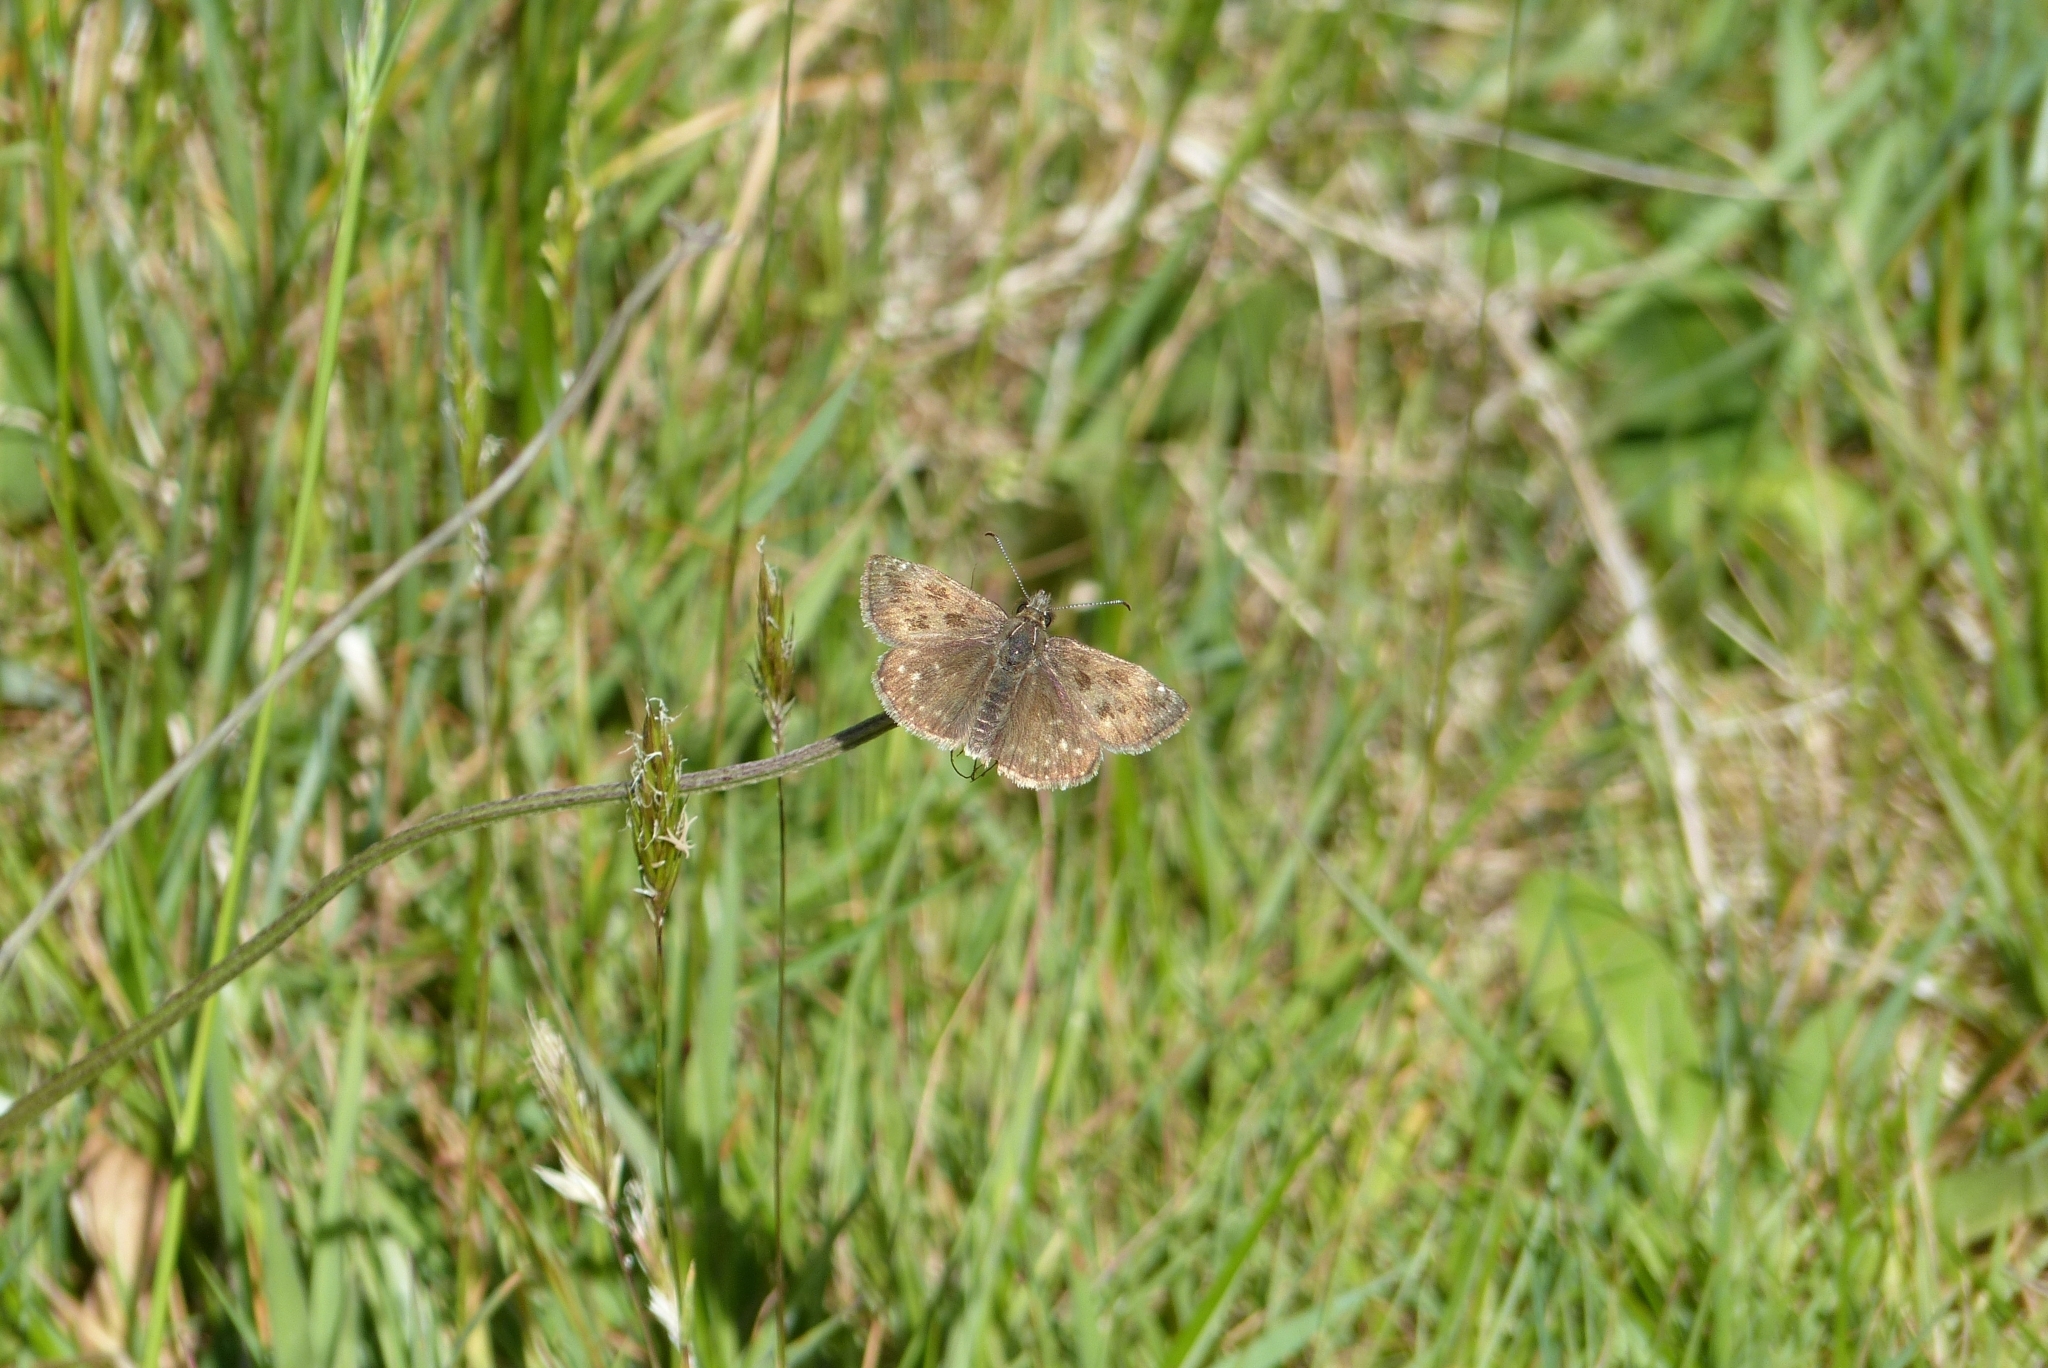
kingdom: Animalia
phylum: Arthropoda
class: Insecta
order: Lepidoptera
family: Hesperiidae
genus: Erynnis
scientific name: Erynnis tages
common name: Dingy skipper
